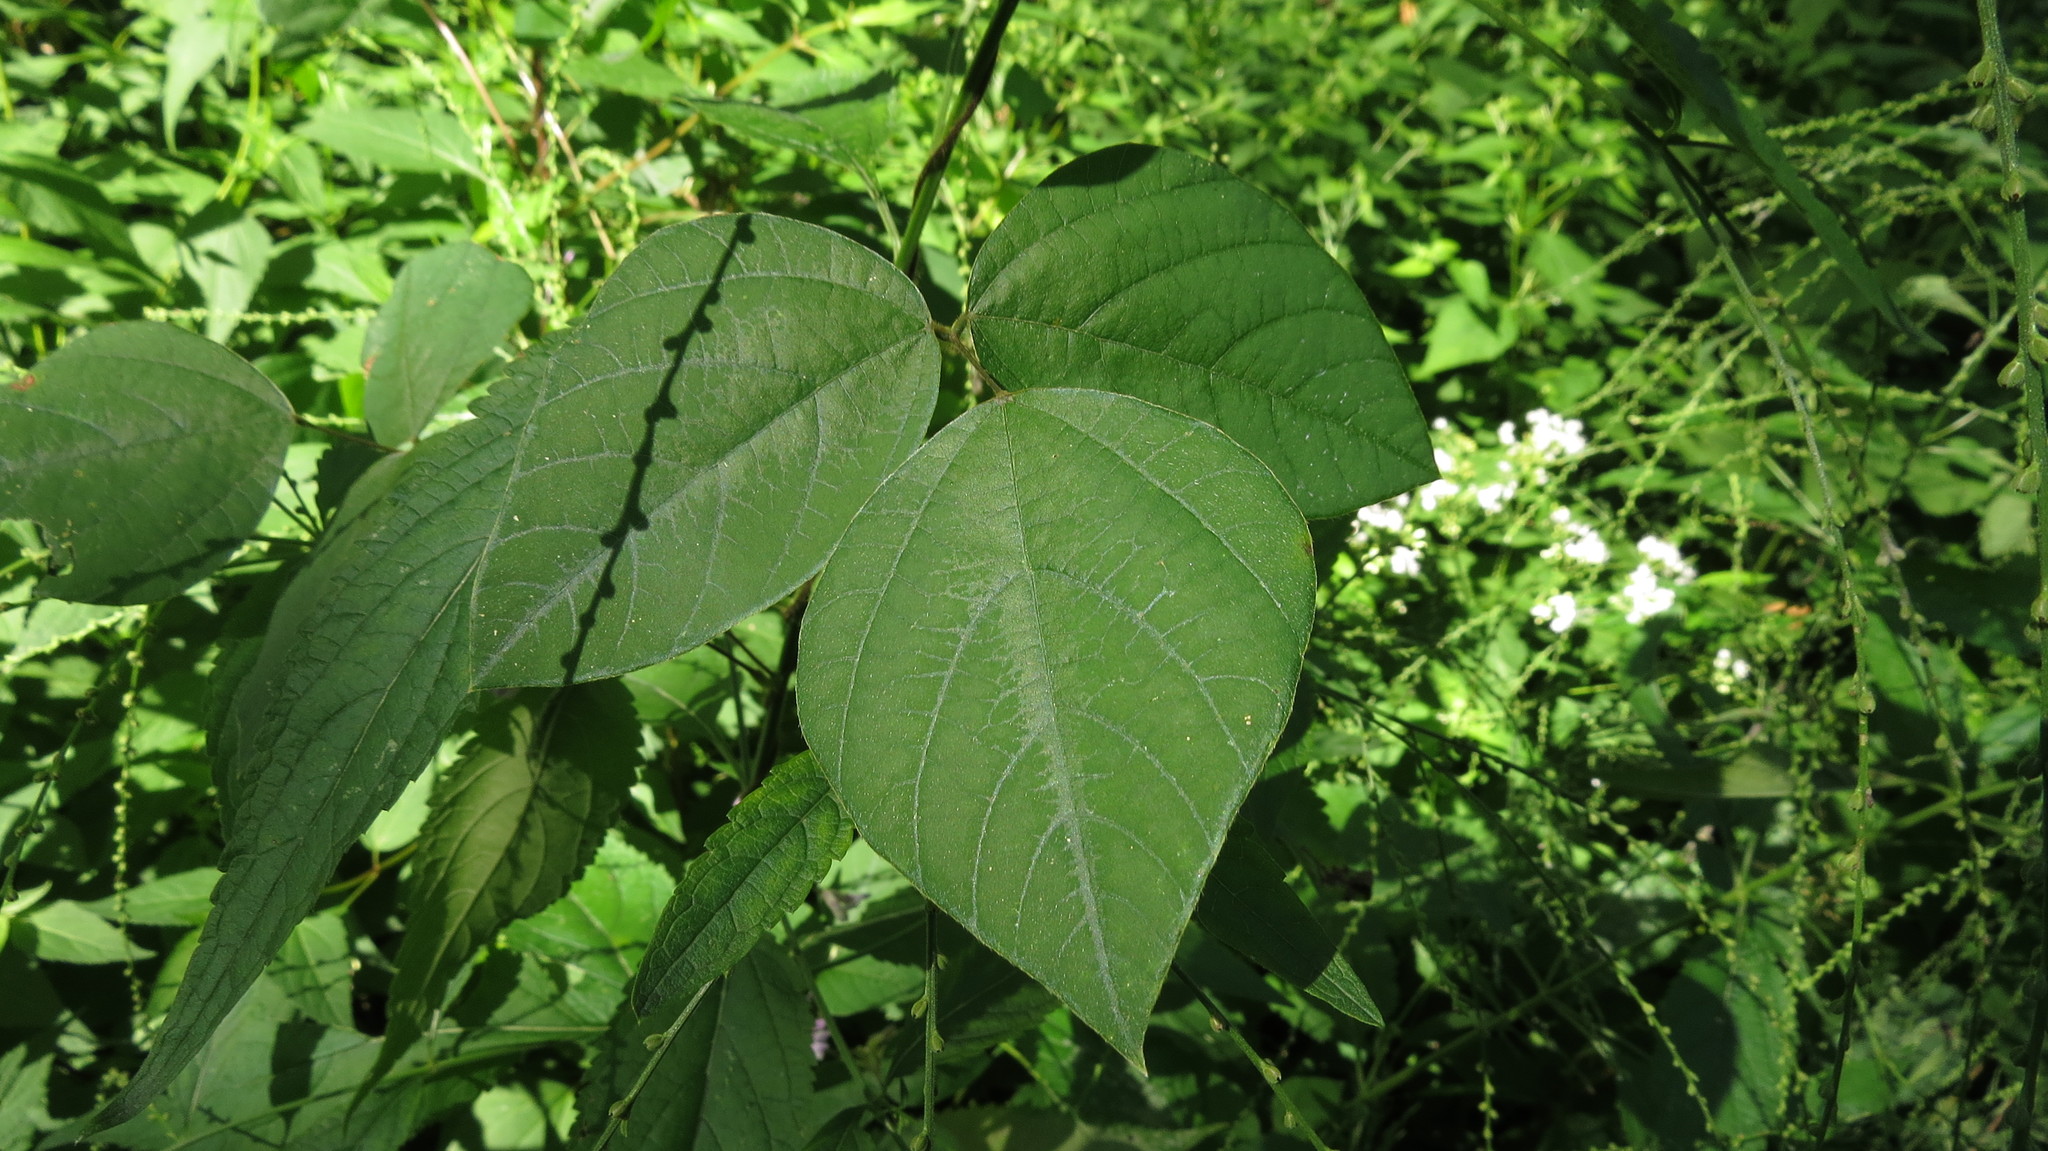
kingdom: Plantae
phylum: Tracheophyta
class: Magnoliopsida
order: Fabales
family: Fabaceae
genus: Amphicarpaea
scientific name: Amphicarpaea bracteata
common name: American hog peanut
